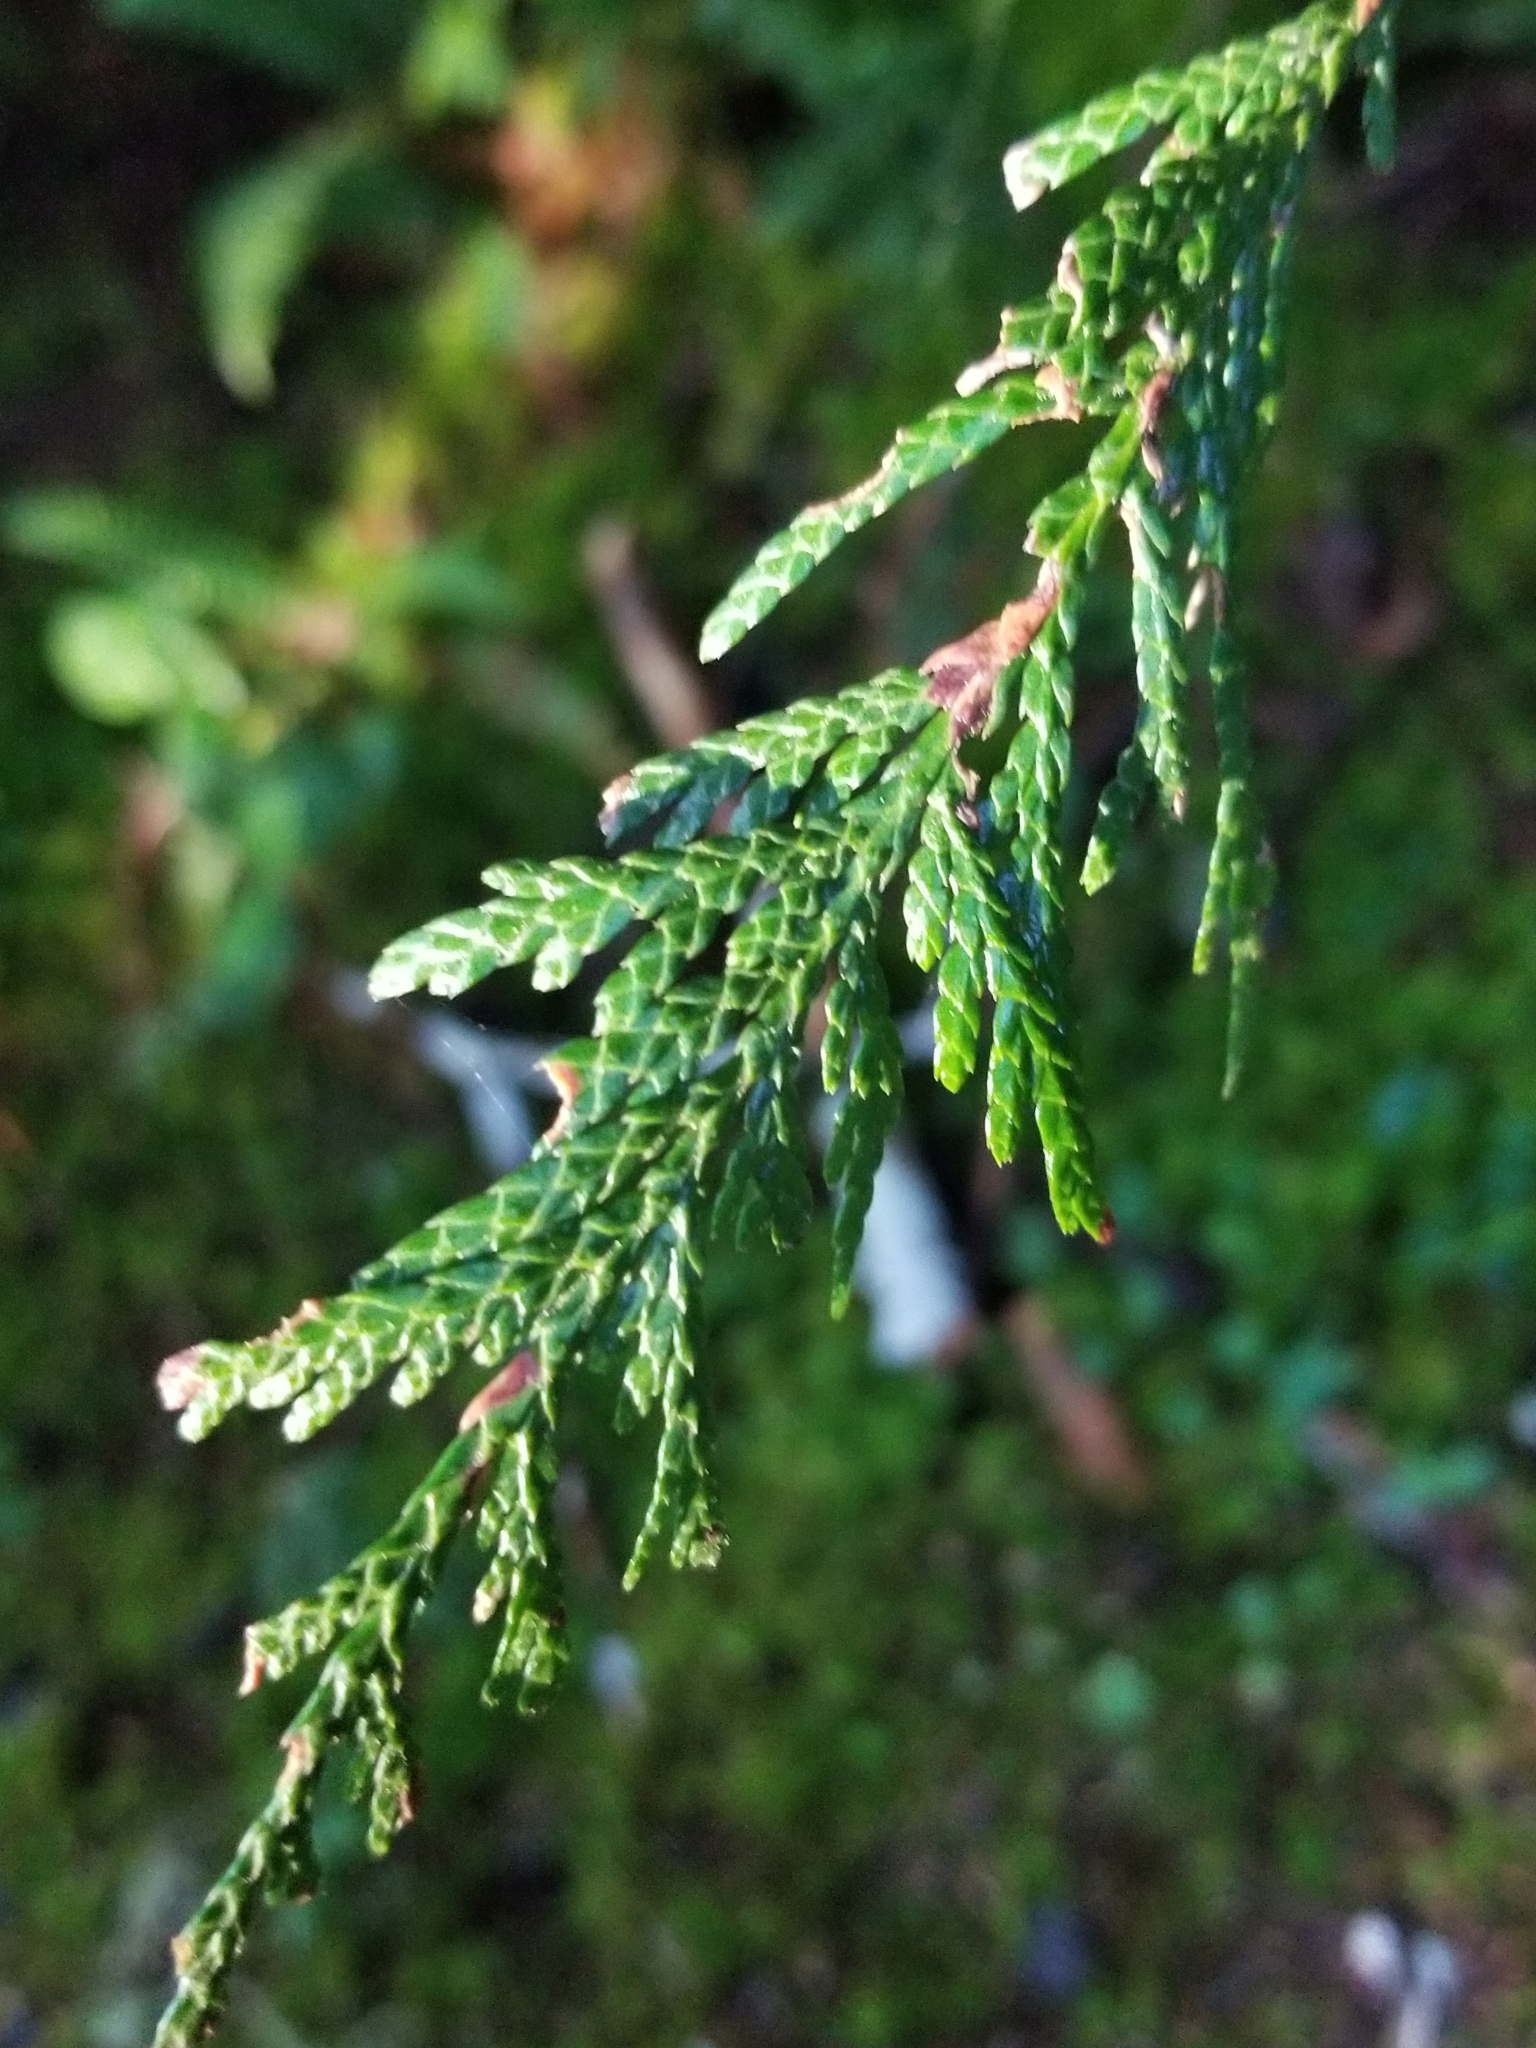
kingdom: Plantae
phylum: Tracheophyta
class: Pinopsida
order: Pinales
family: Cupressaceae
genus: Thuja
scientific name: Thuja plicata
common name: Western red-cedar
